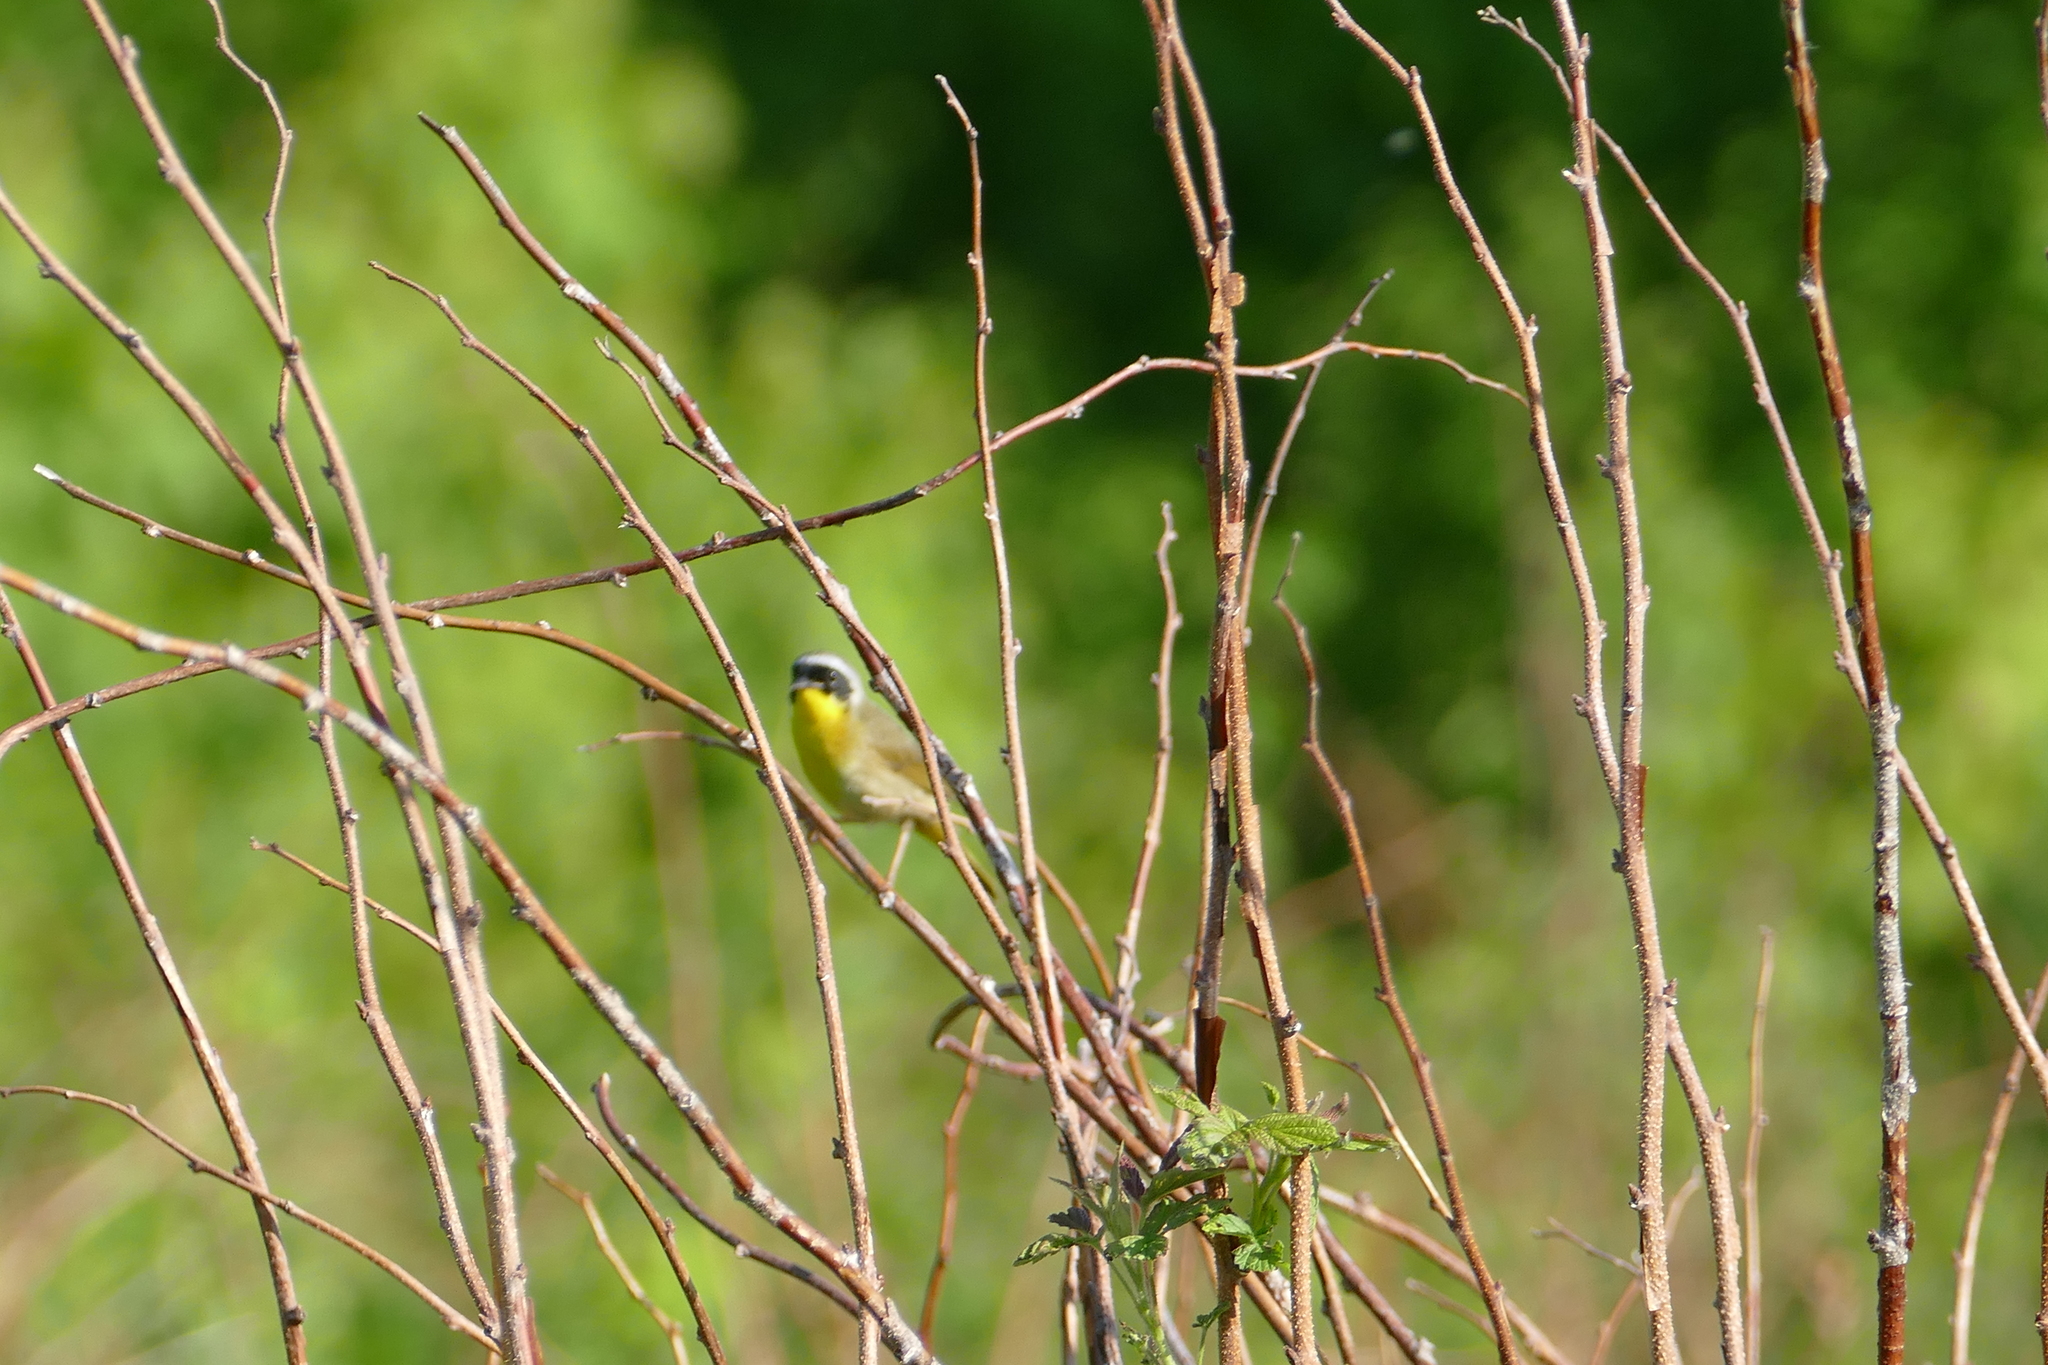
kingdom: Animalia
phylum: Chordata
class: Aves
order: Passeriformes
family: Parulidae
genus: Geothlypis
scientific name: Geothlypis trichas
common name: Common yellowthroat
